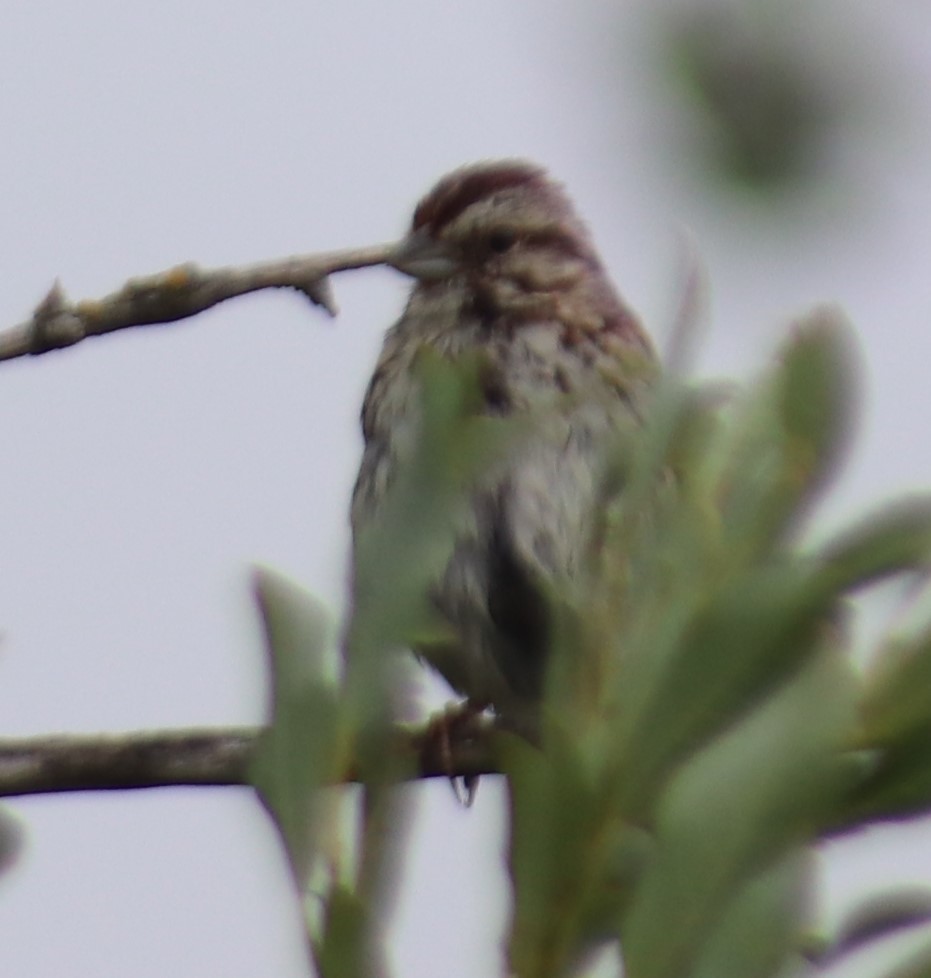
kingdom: Animalia
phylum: Chordata
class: Aves
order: Passeriformes
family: Passerellidae
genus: Melospiza
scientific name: Melospiza melodia
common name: Song sparrow
